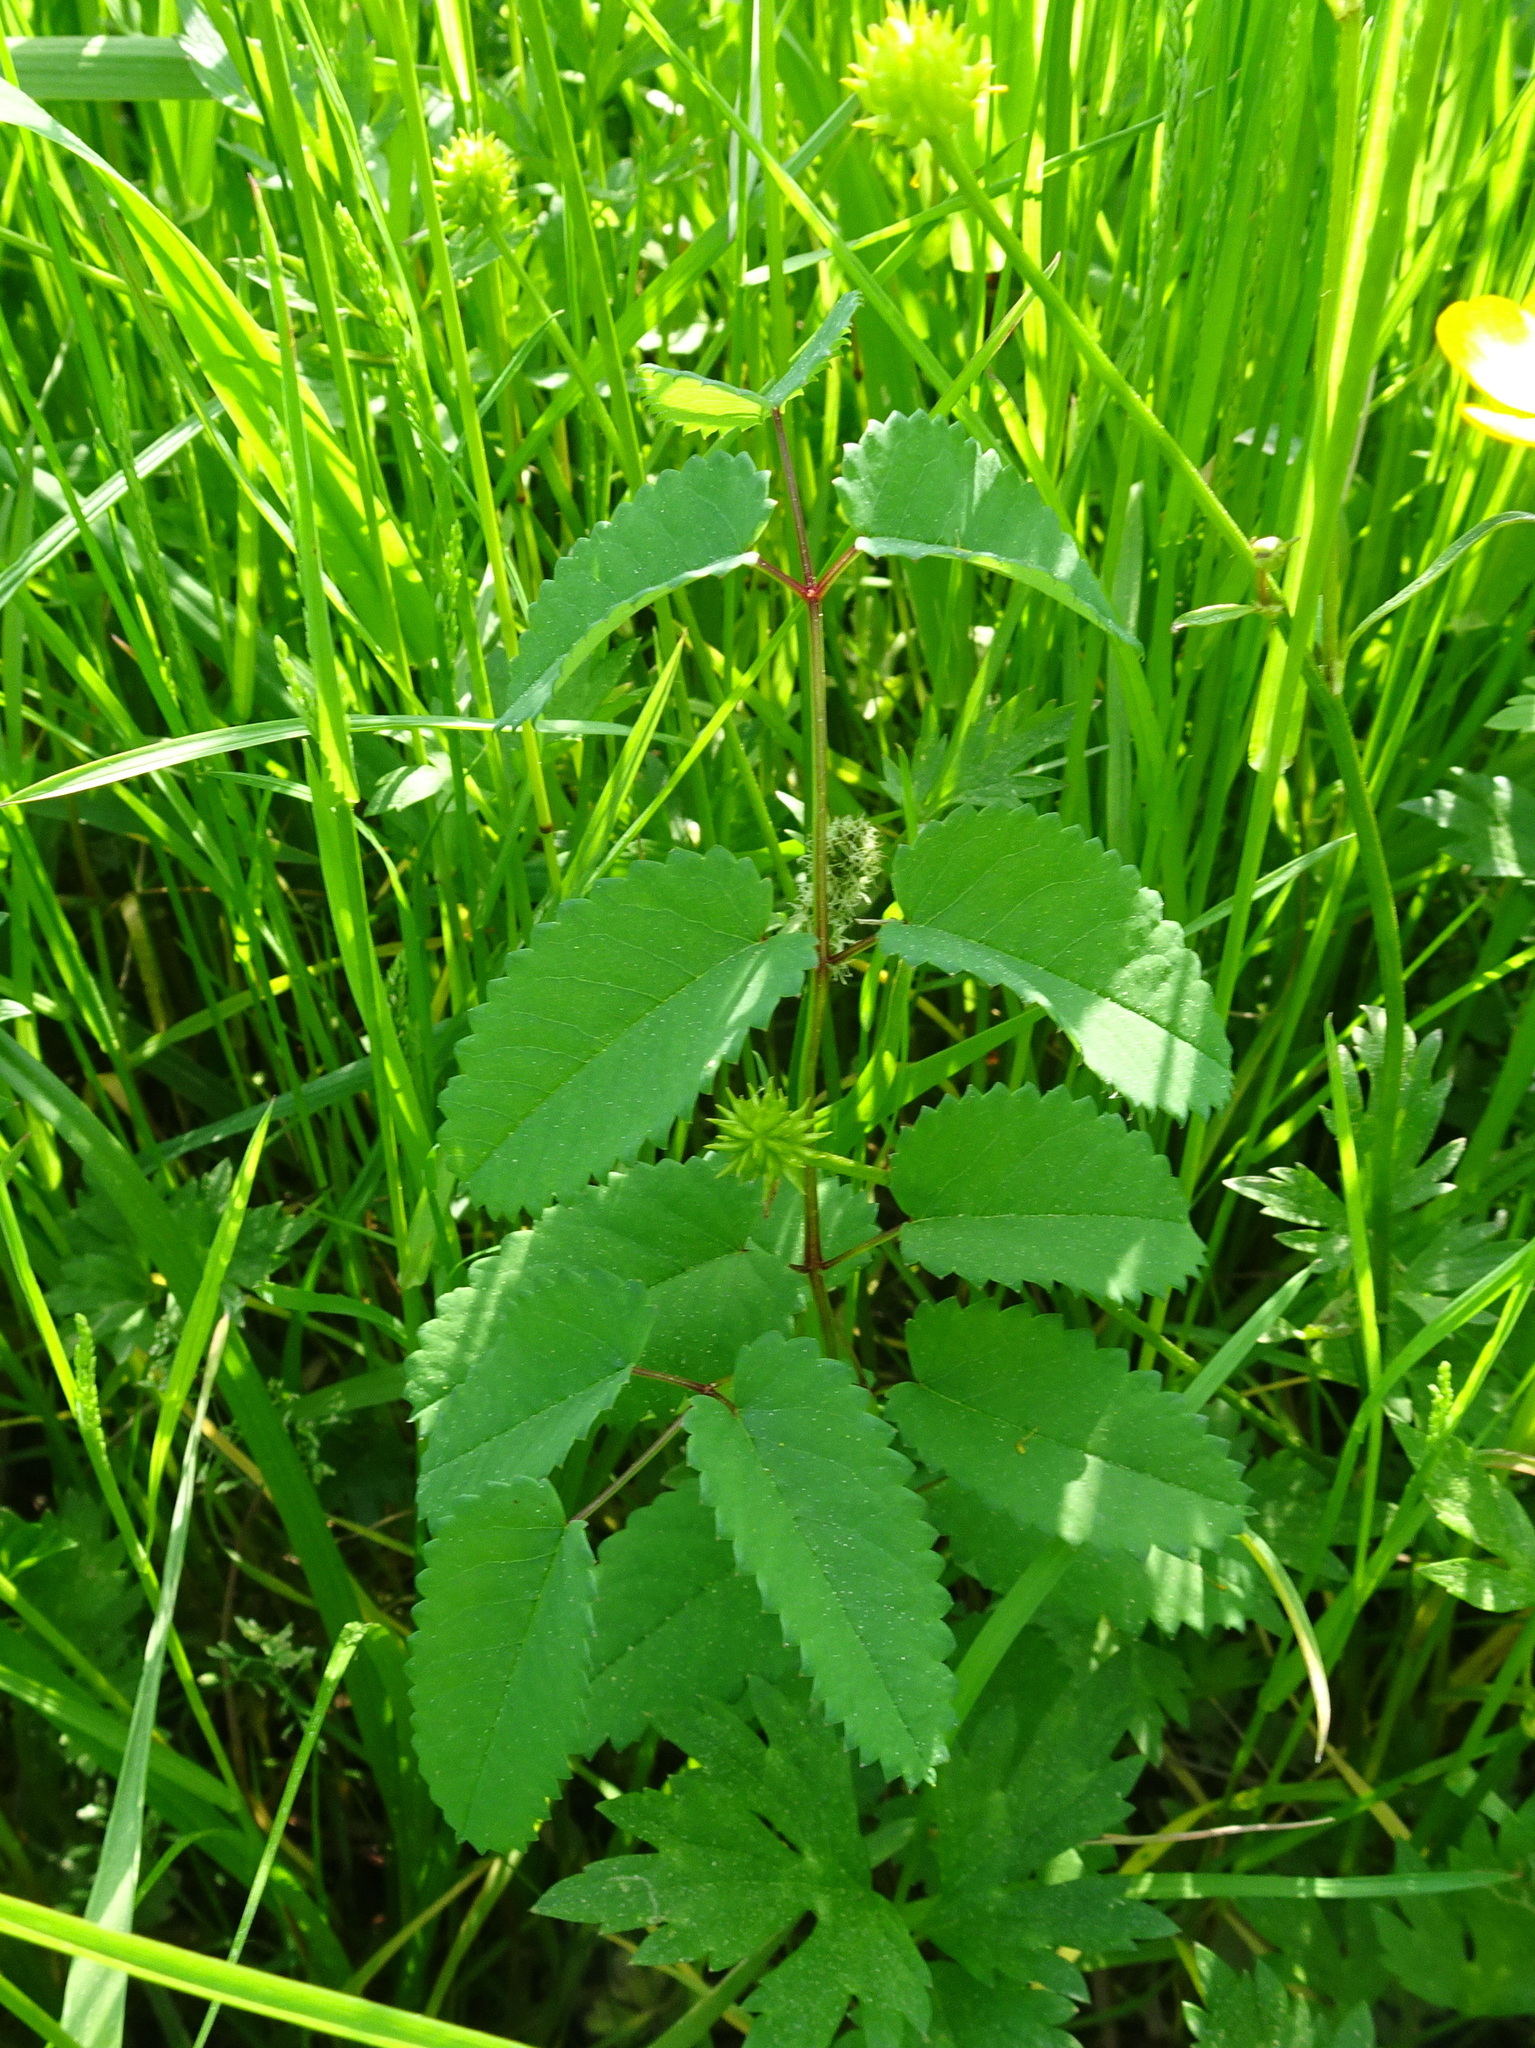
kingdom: Plantae
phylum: Tracheophyta
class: Magnoliopsida
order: Rosales
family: Rosaceae
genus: Sanguisorba
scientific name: Sanguisorba officinalis
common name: Great burnet
